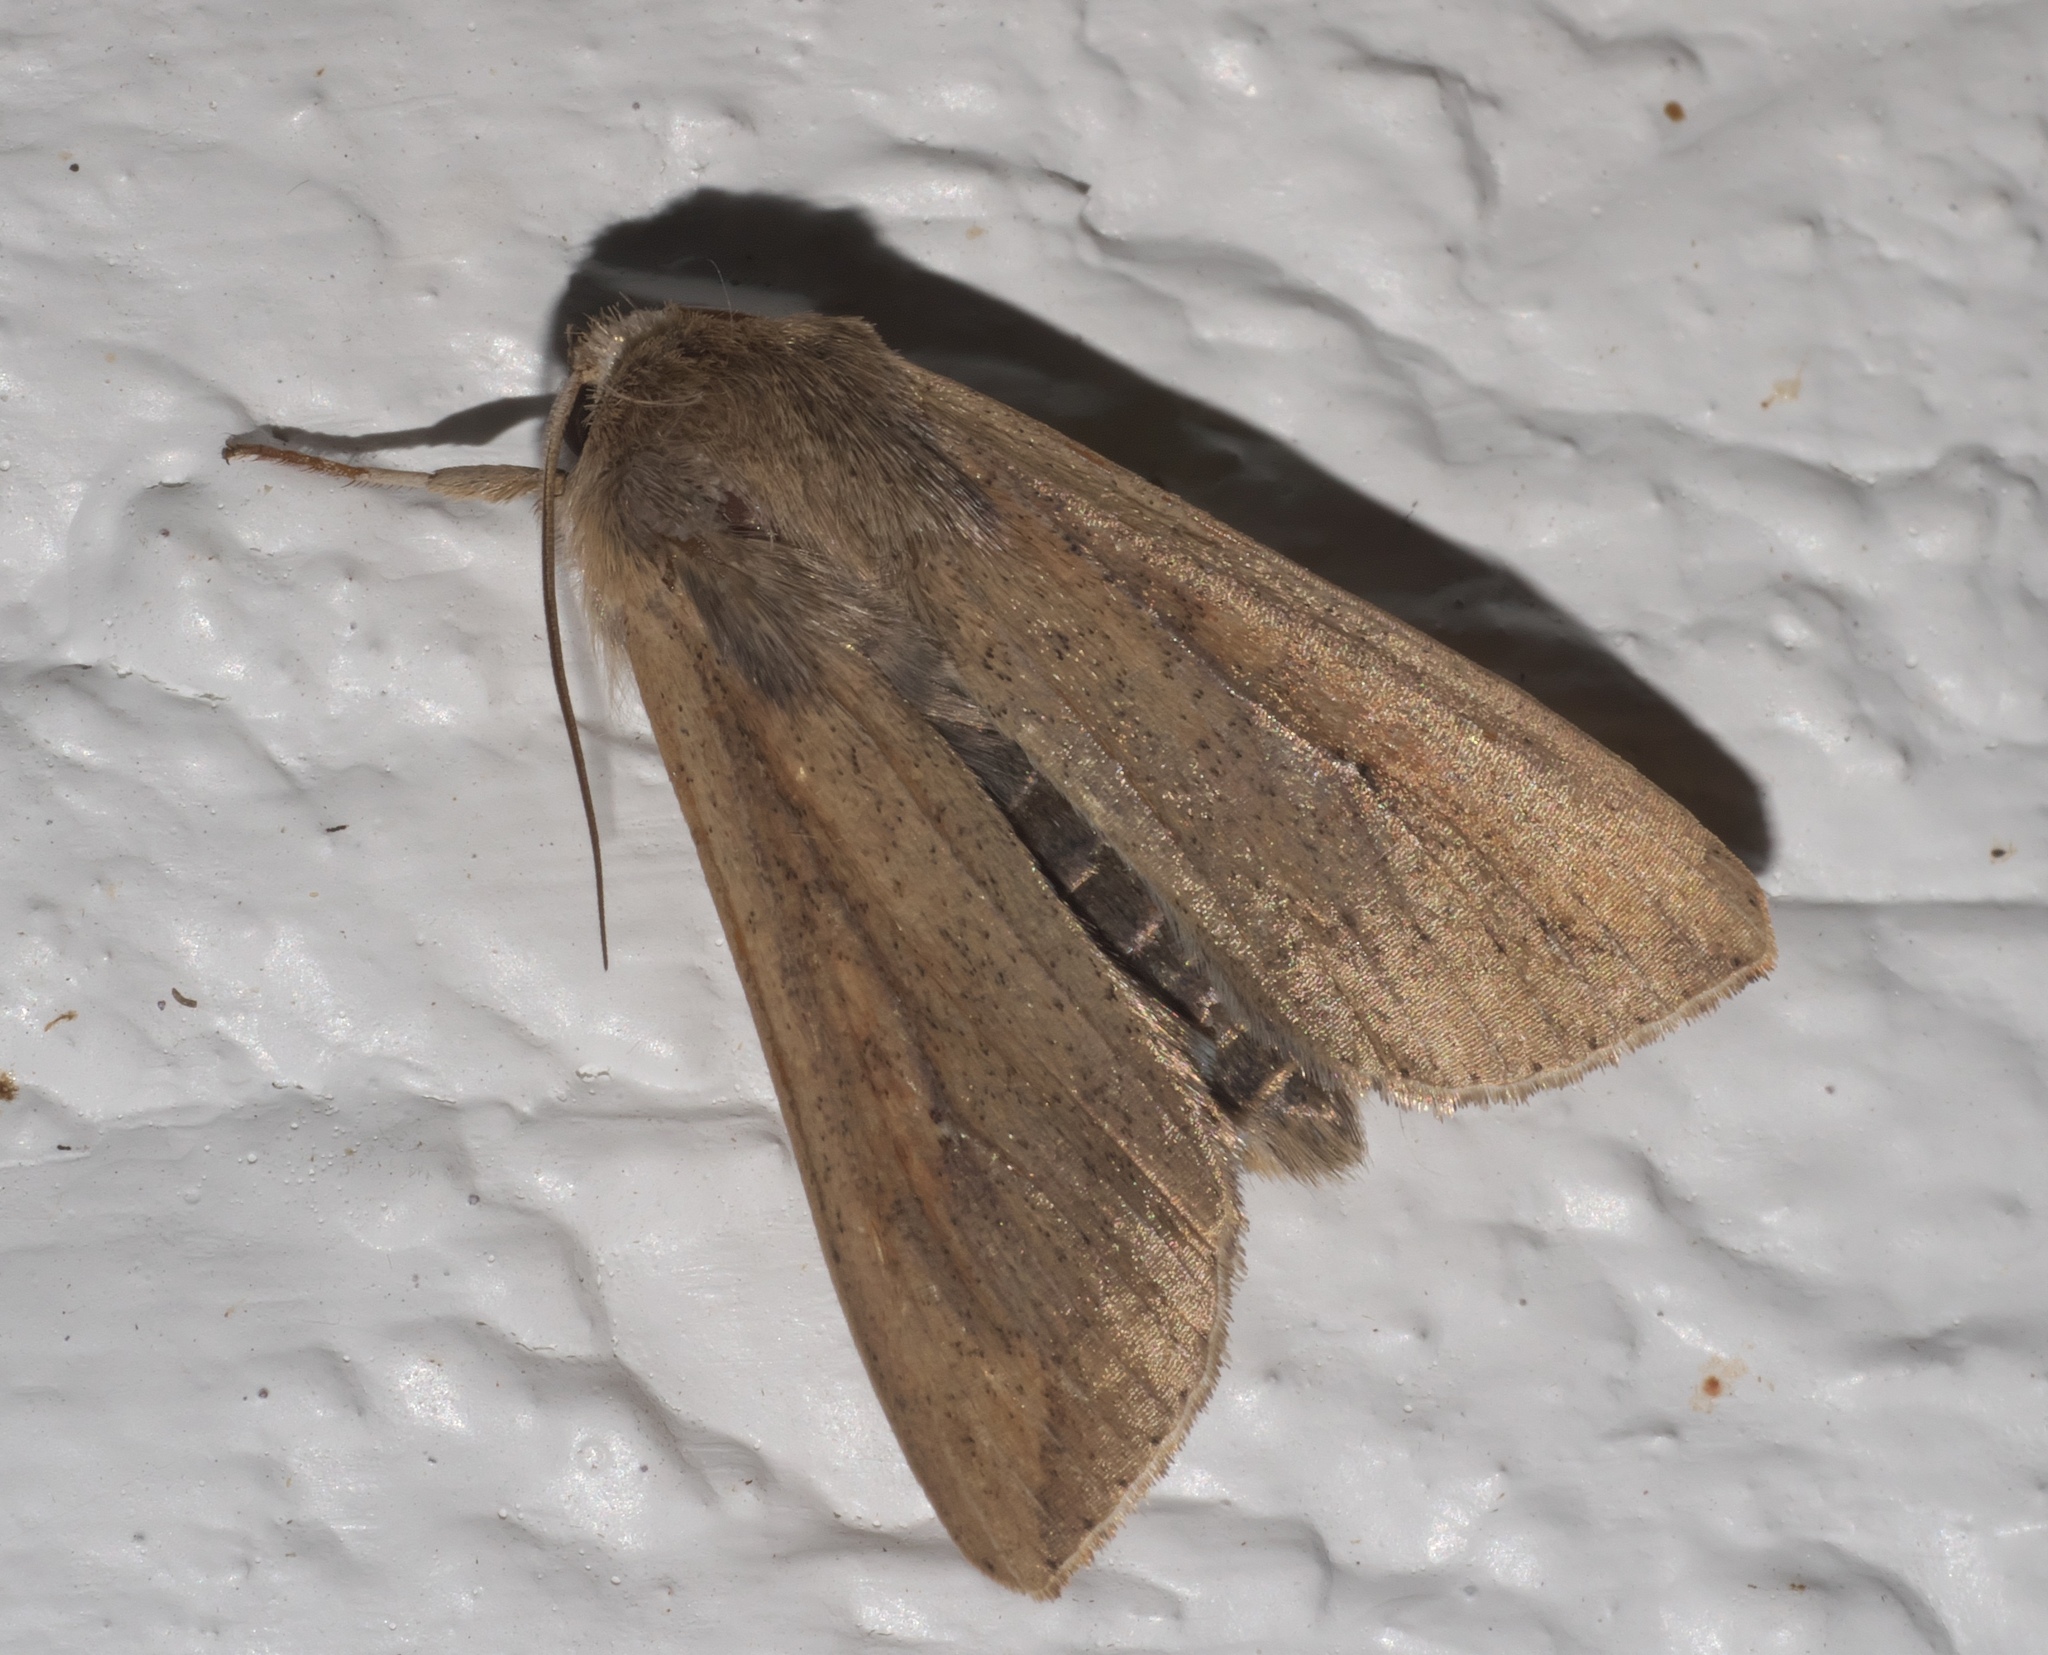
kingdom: Animalia
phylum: Arthropoda
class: Insecta
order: Lepidoptera
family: Noctuidae
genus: Mythimna
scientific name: Mythimna unipuncta
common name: White-speck
